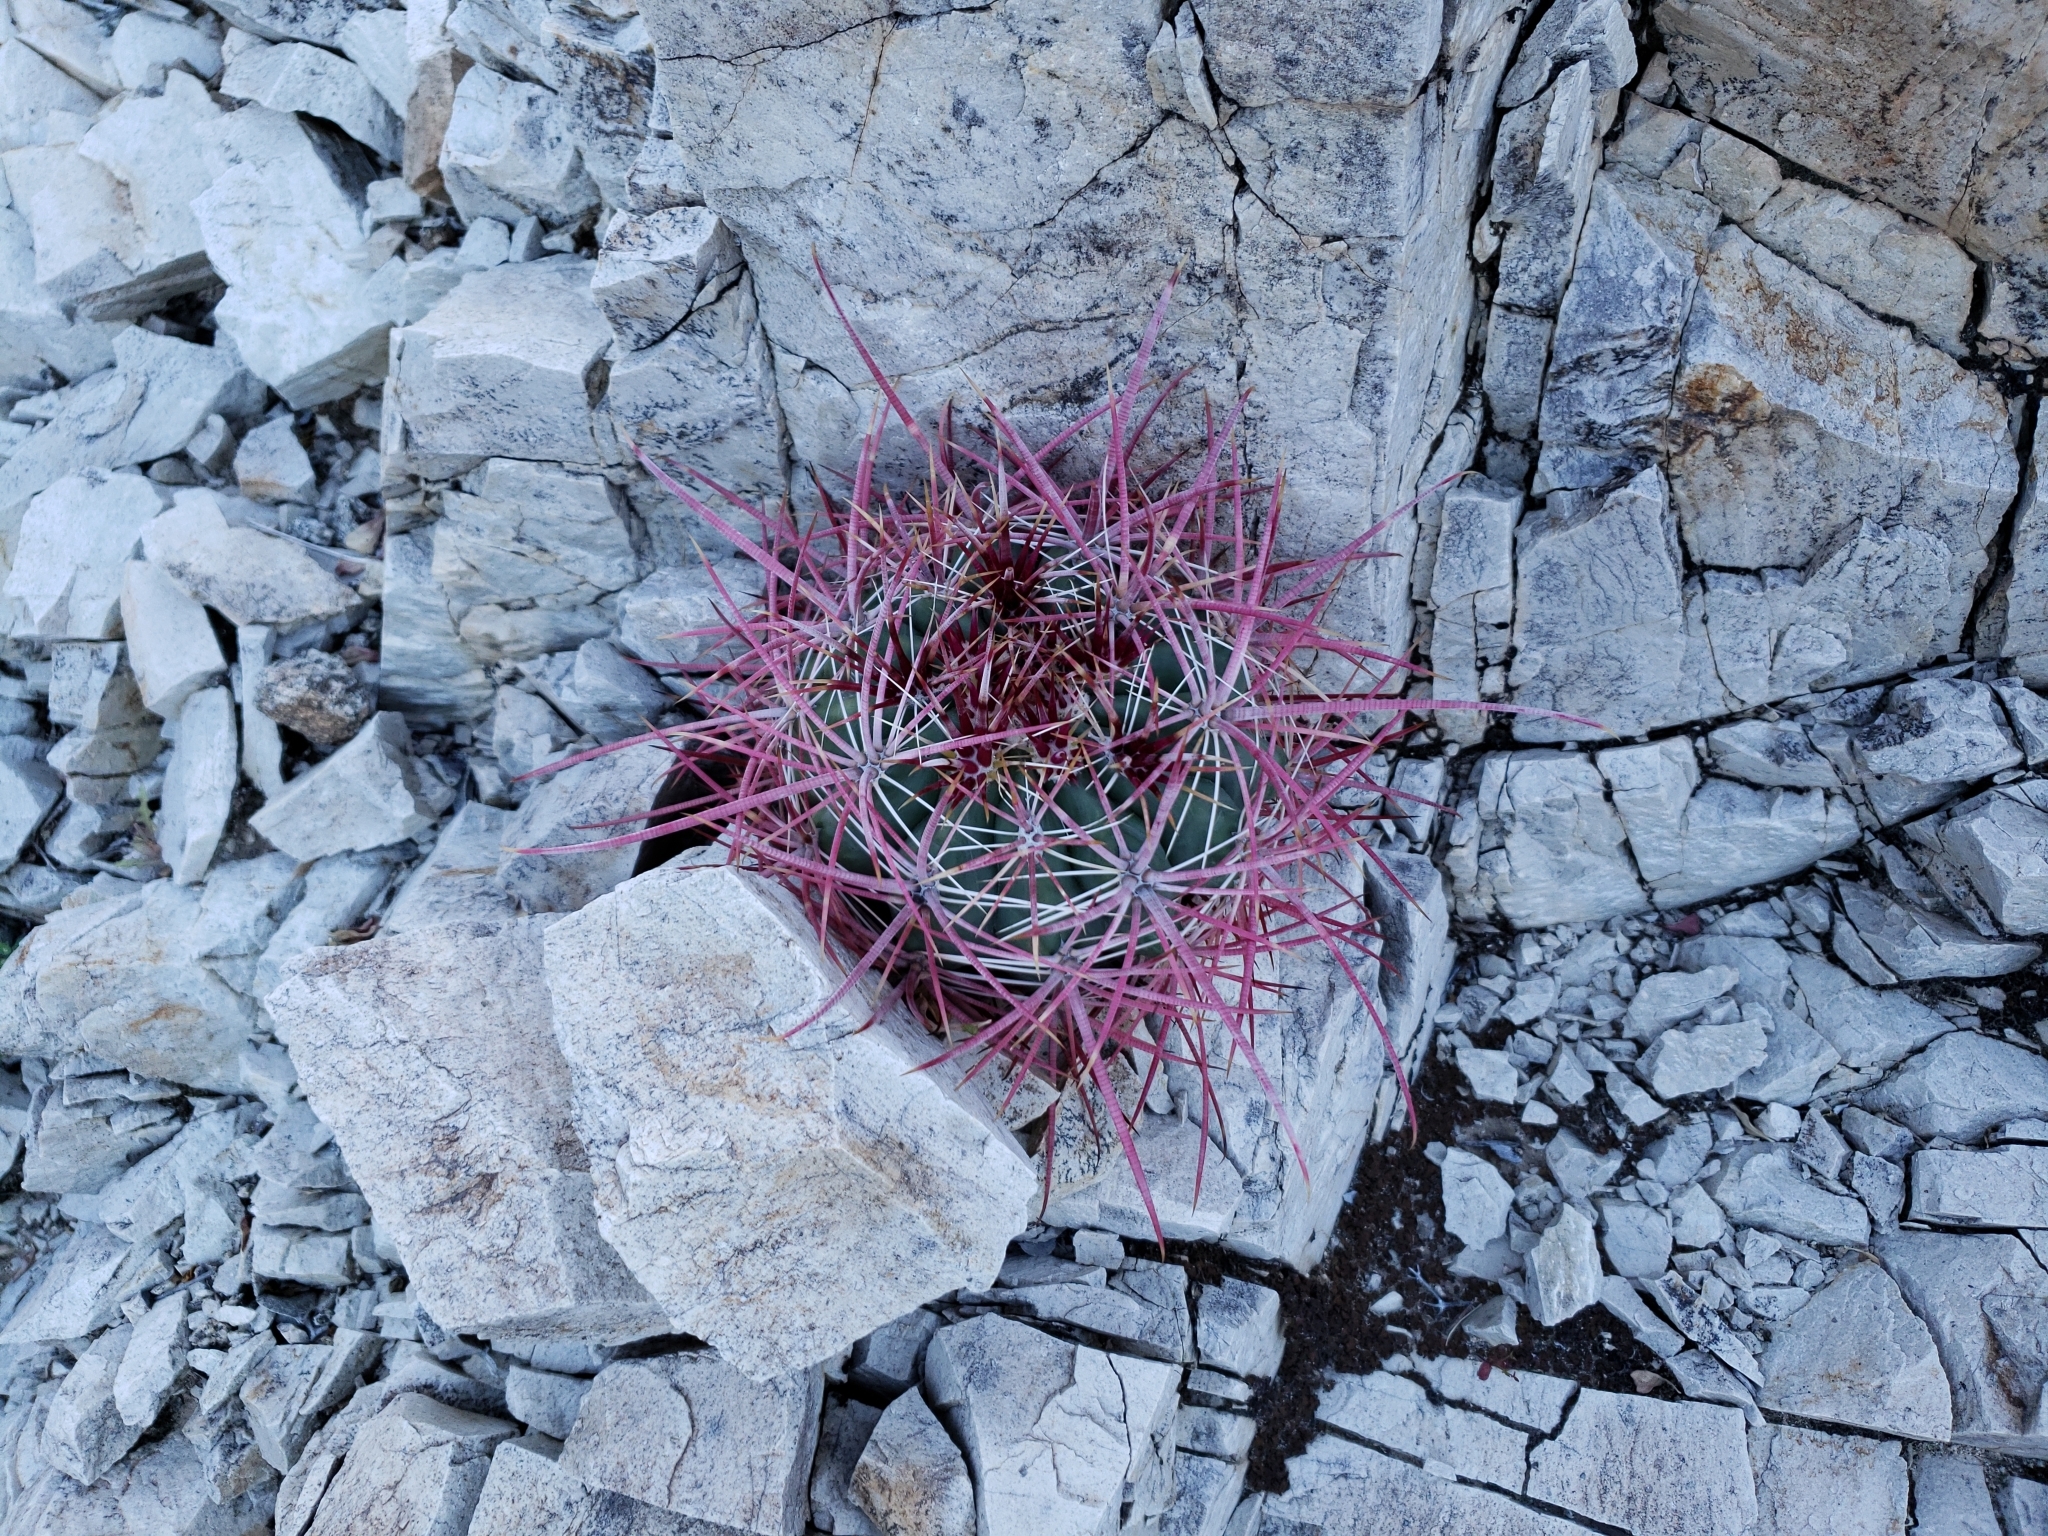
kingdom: Plantae
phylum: Tracheophyta
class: Magnoliopsida
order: Caryophyllales
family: Cactaceae
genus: Ferocactus
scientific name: Ferocactus cylindraceus
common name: California barrel cactus
